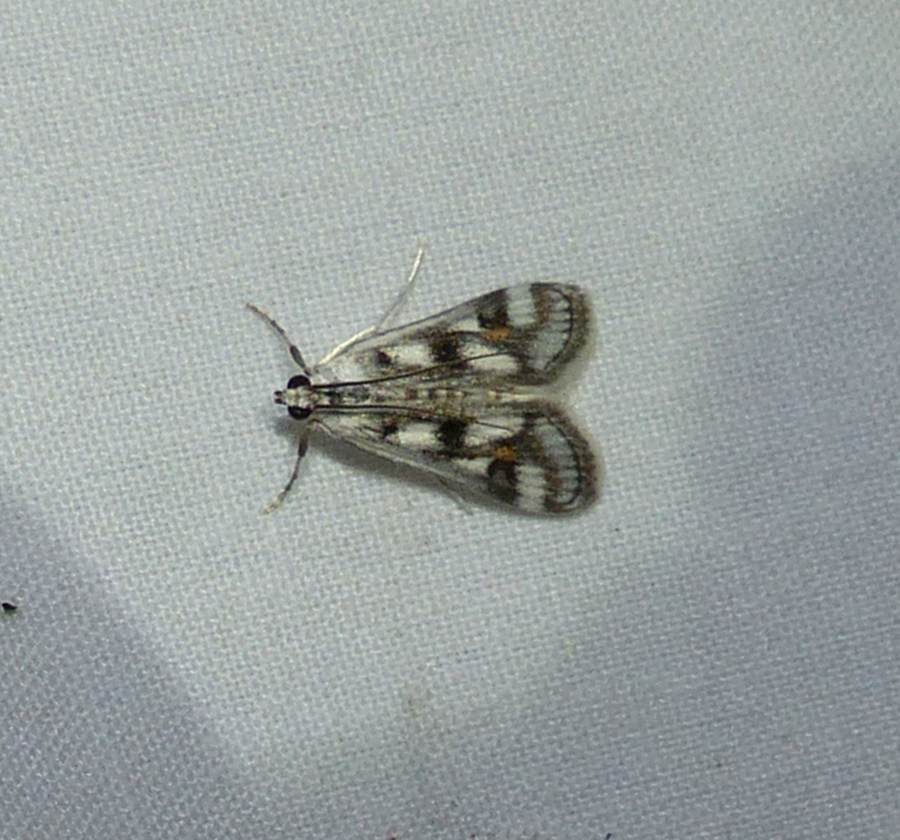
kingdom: Animalia
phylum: Arthropoda
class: Insecta
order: Lepidoptera
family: Crambidae
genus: Parapoynx
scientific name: Parapoynx maculalis
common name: Polymorphic pondweed moth
